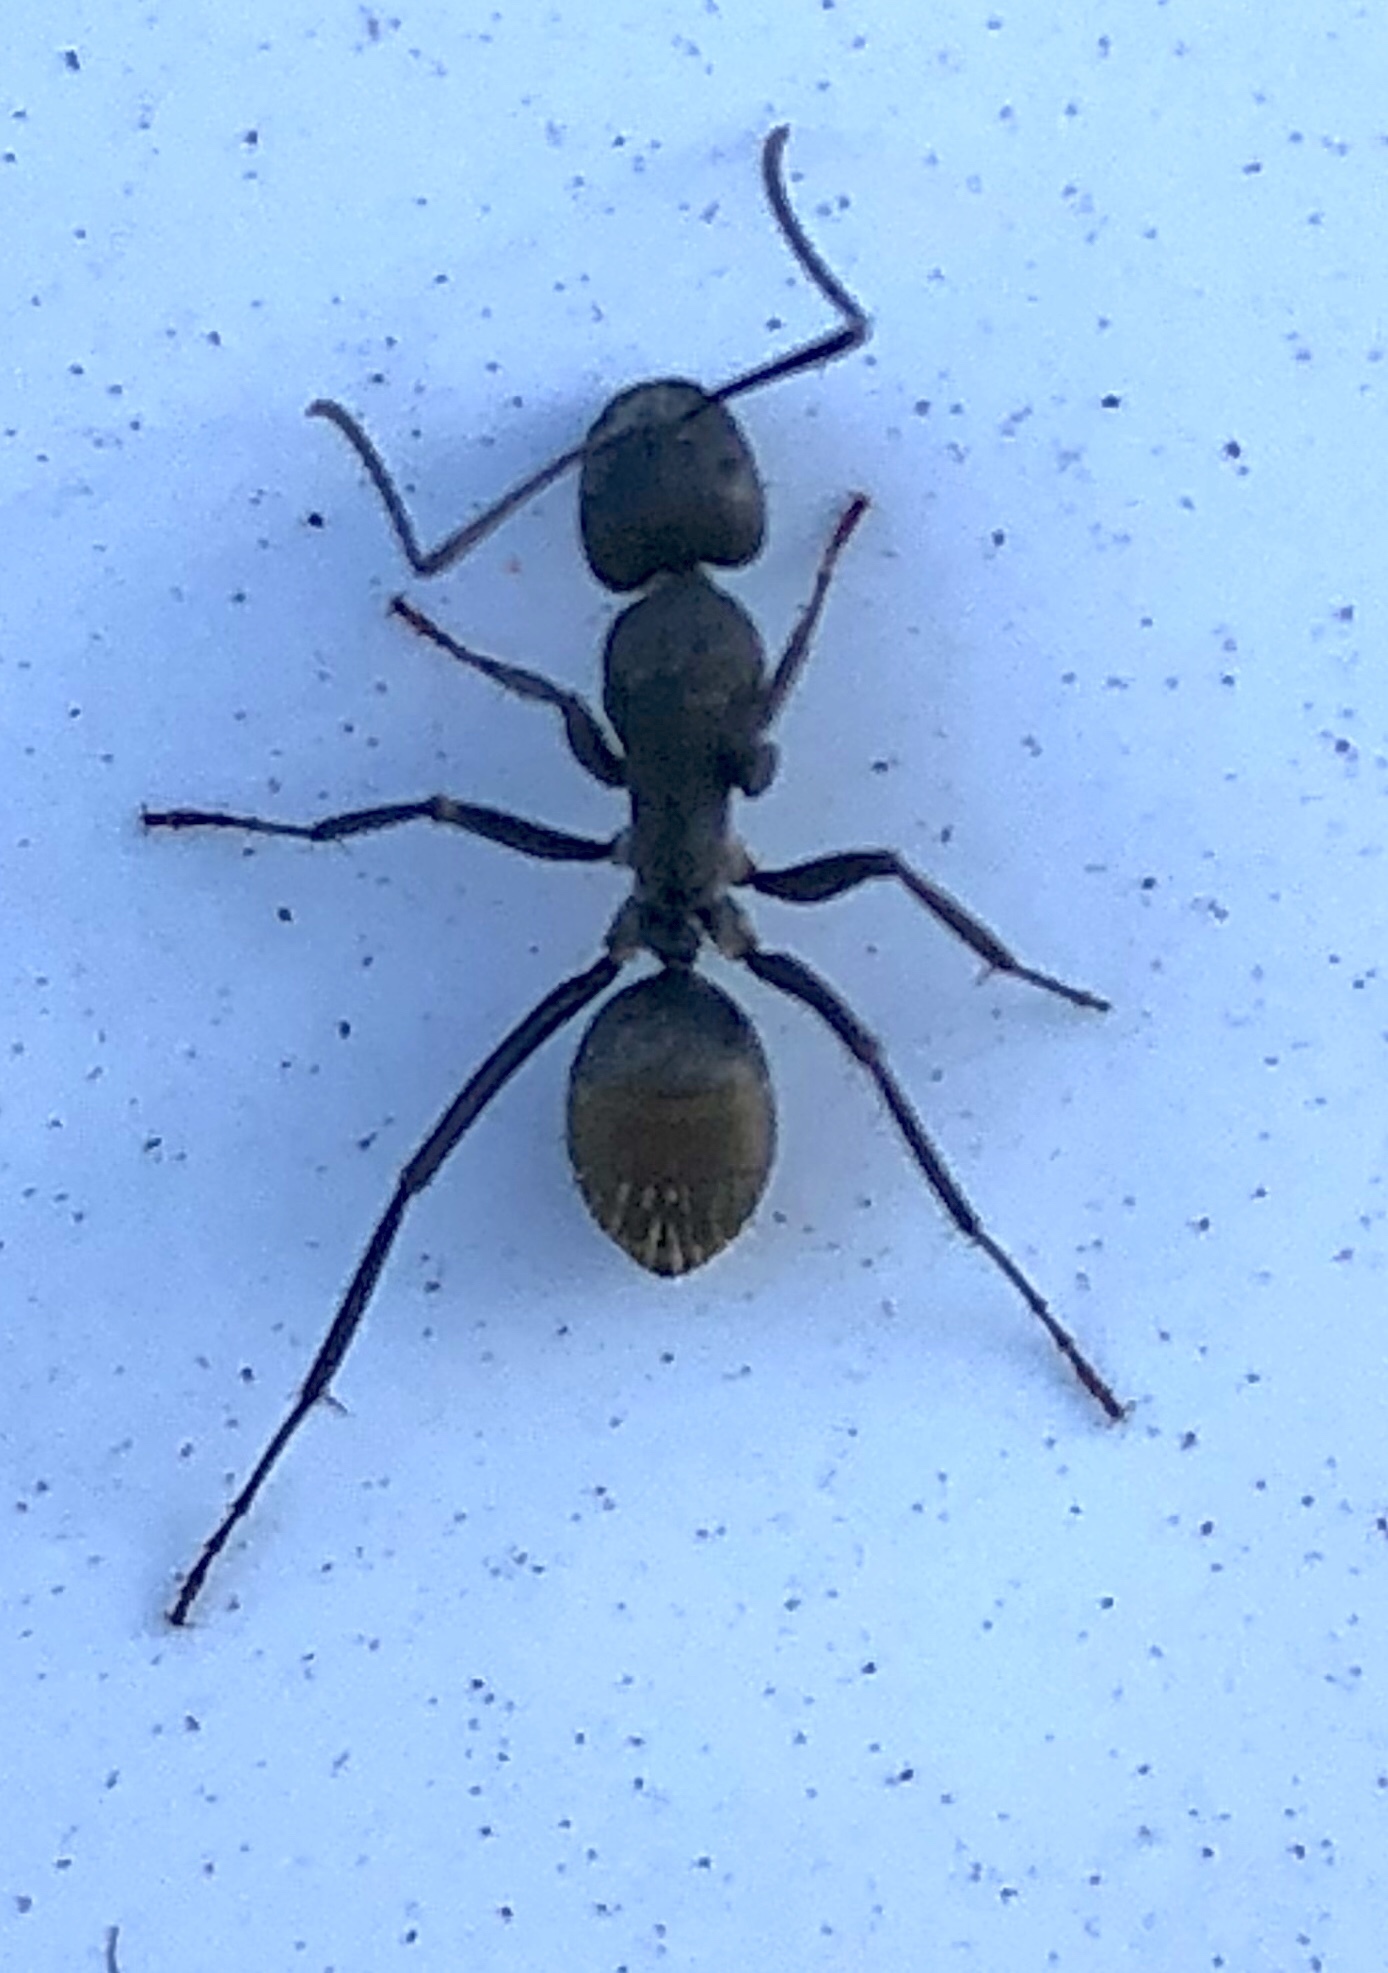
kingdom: Animalia
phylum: Arthropoda
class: Insecta
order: Hymenoptera
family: Formicidae
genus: Camponotus
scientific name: Camponotus aeneopilosus
